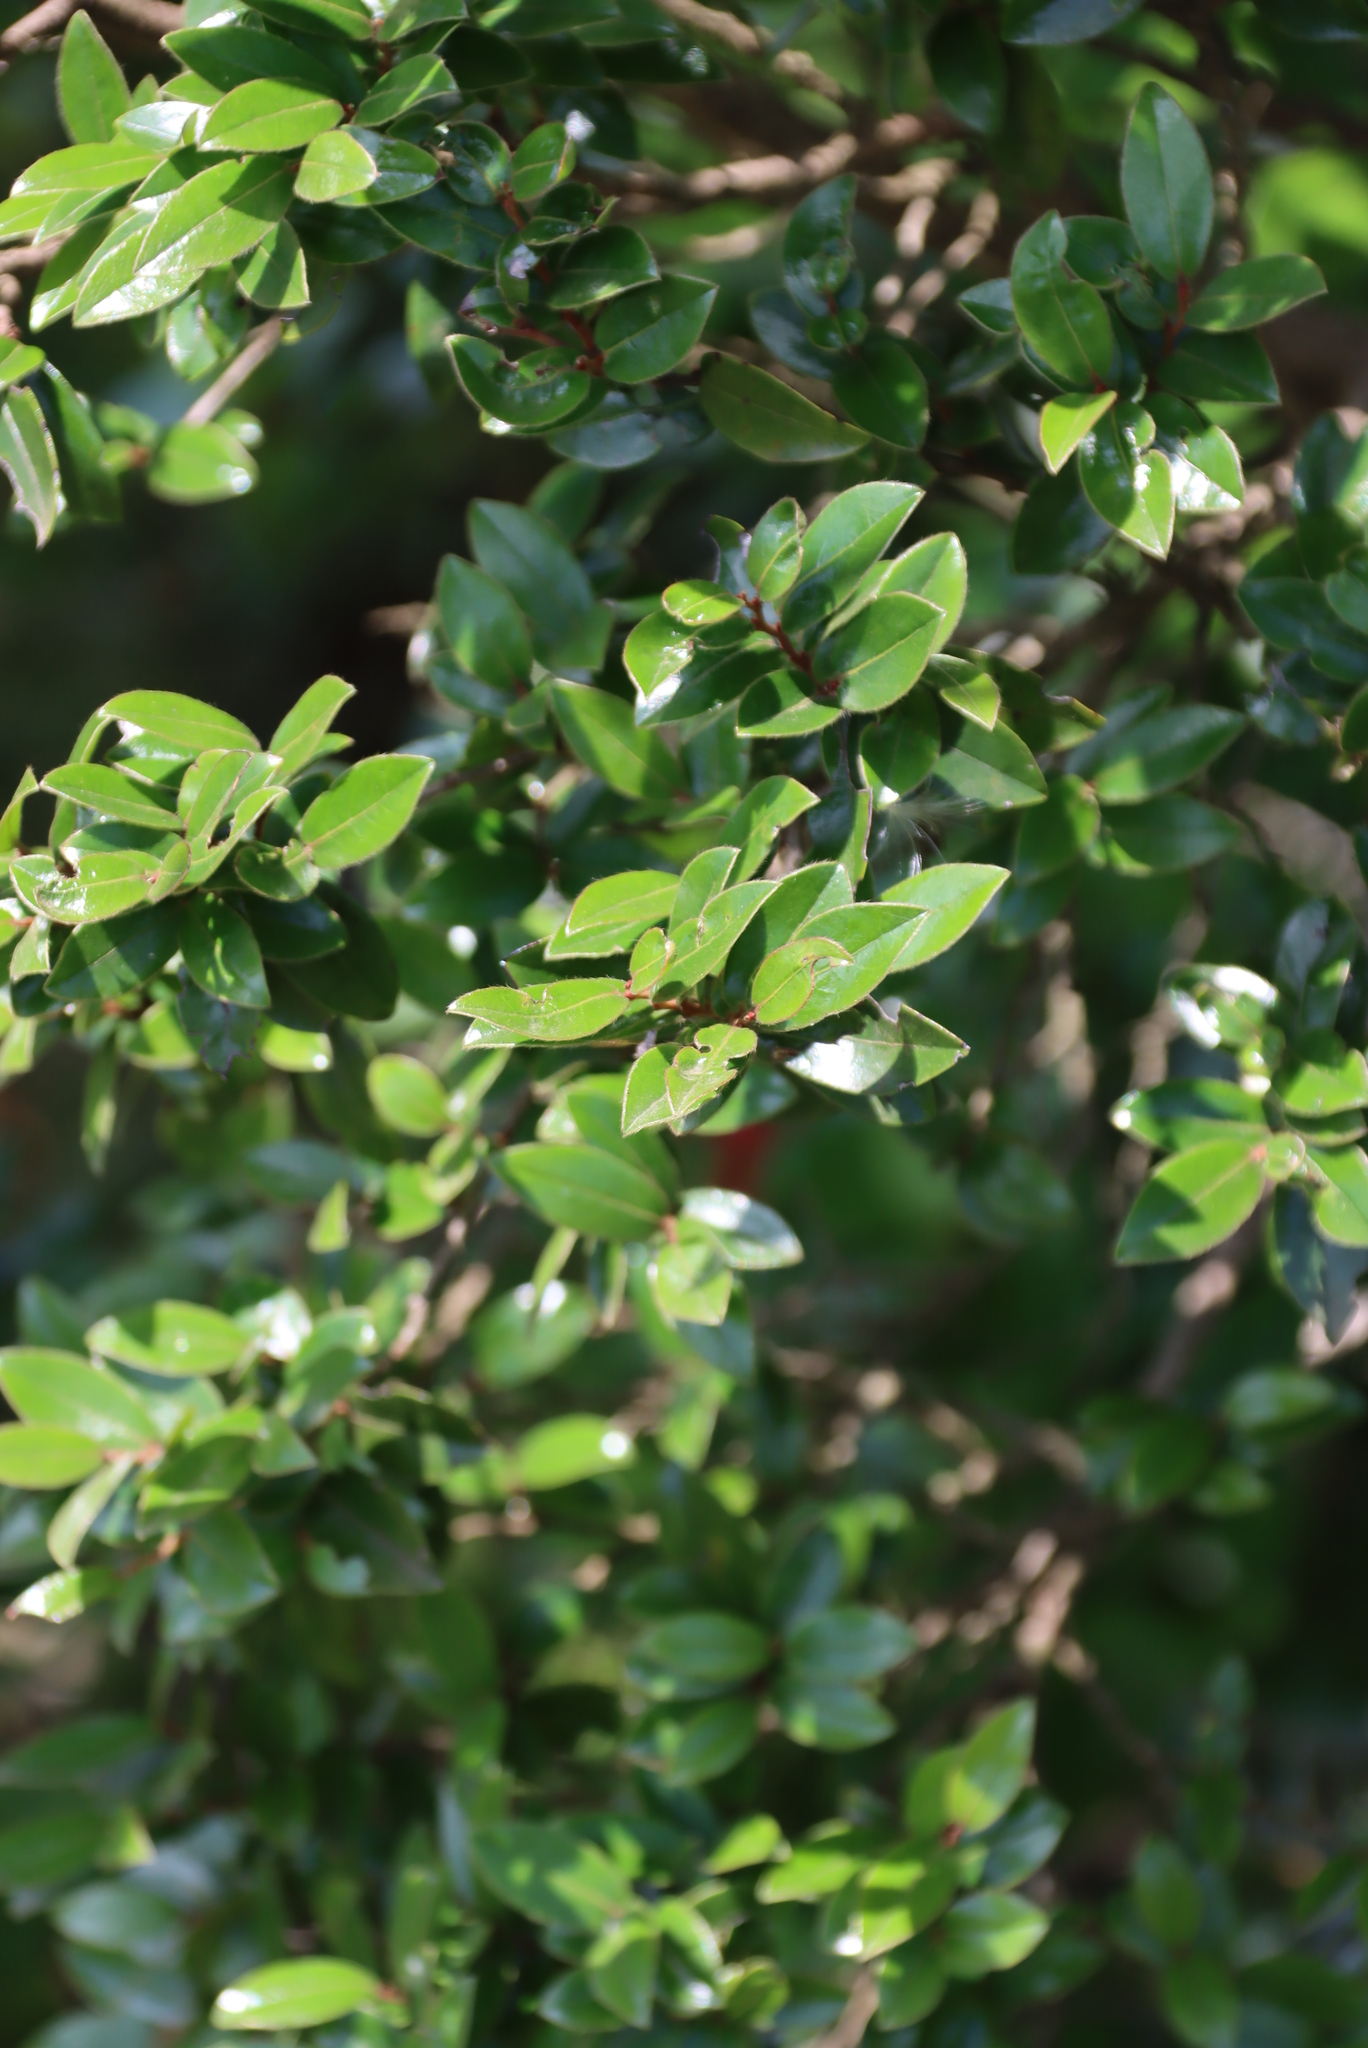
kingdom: Plantae
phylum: Tracheophyta
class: Magnoliopsida
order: Ericales
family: Ebenaceae
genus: Diospyros
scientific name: Diospyros whyteana
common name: Bladder-nut
